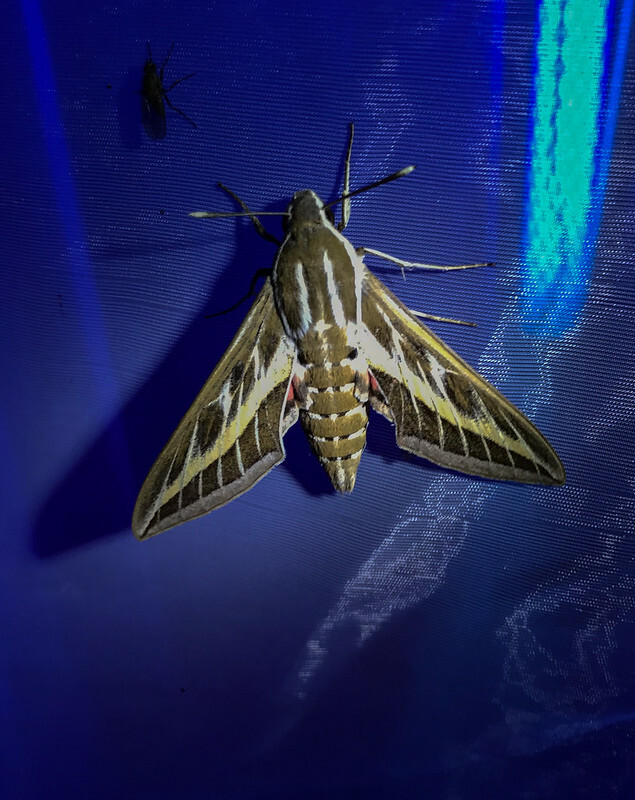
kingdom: Animalia
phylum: Arthropoda
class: Insecta
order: Lepidoptera
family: Sphingidae
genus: Hyles
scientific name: Hyles livornica
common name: Striped hawk-moth
